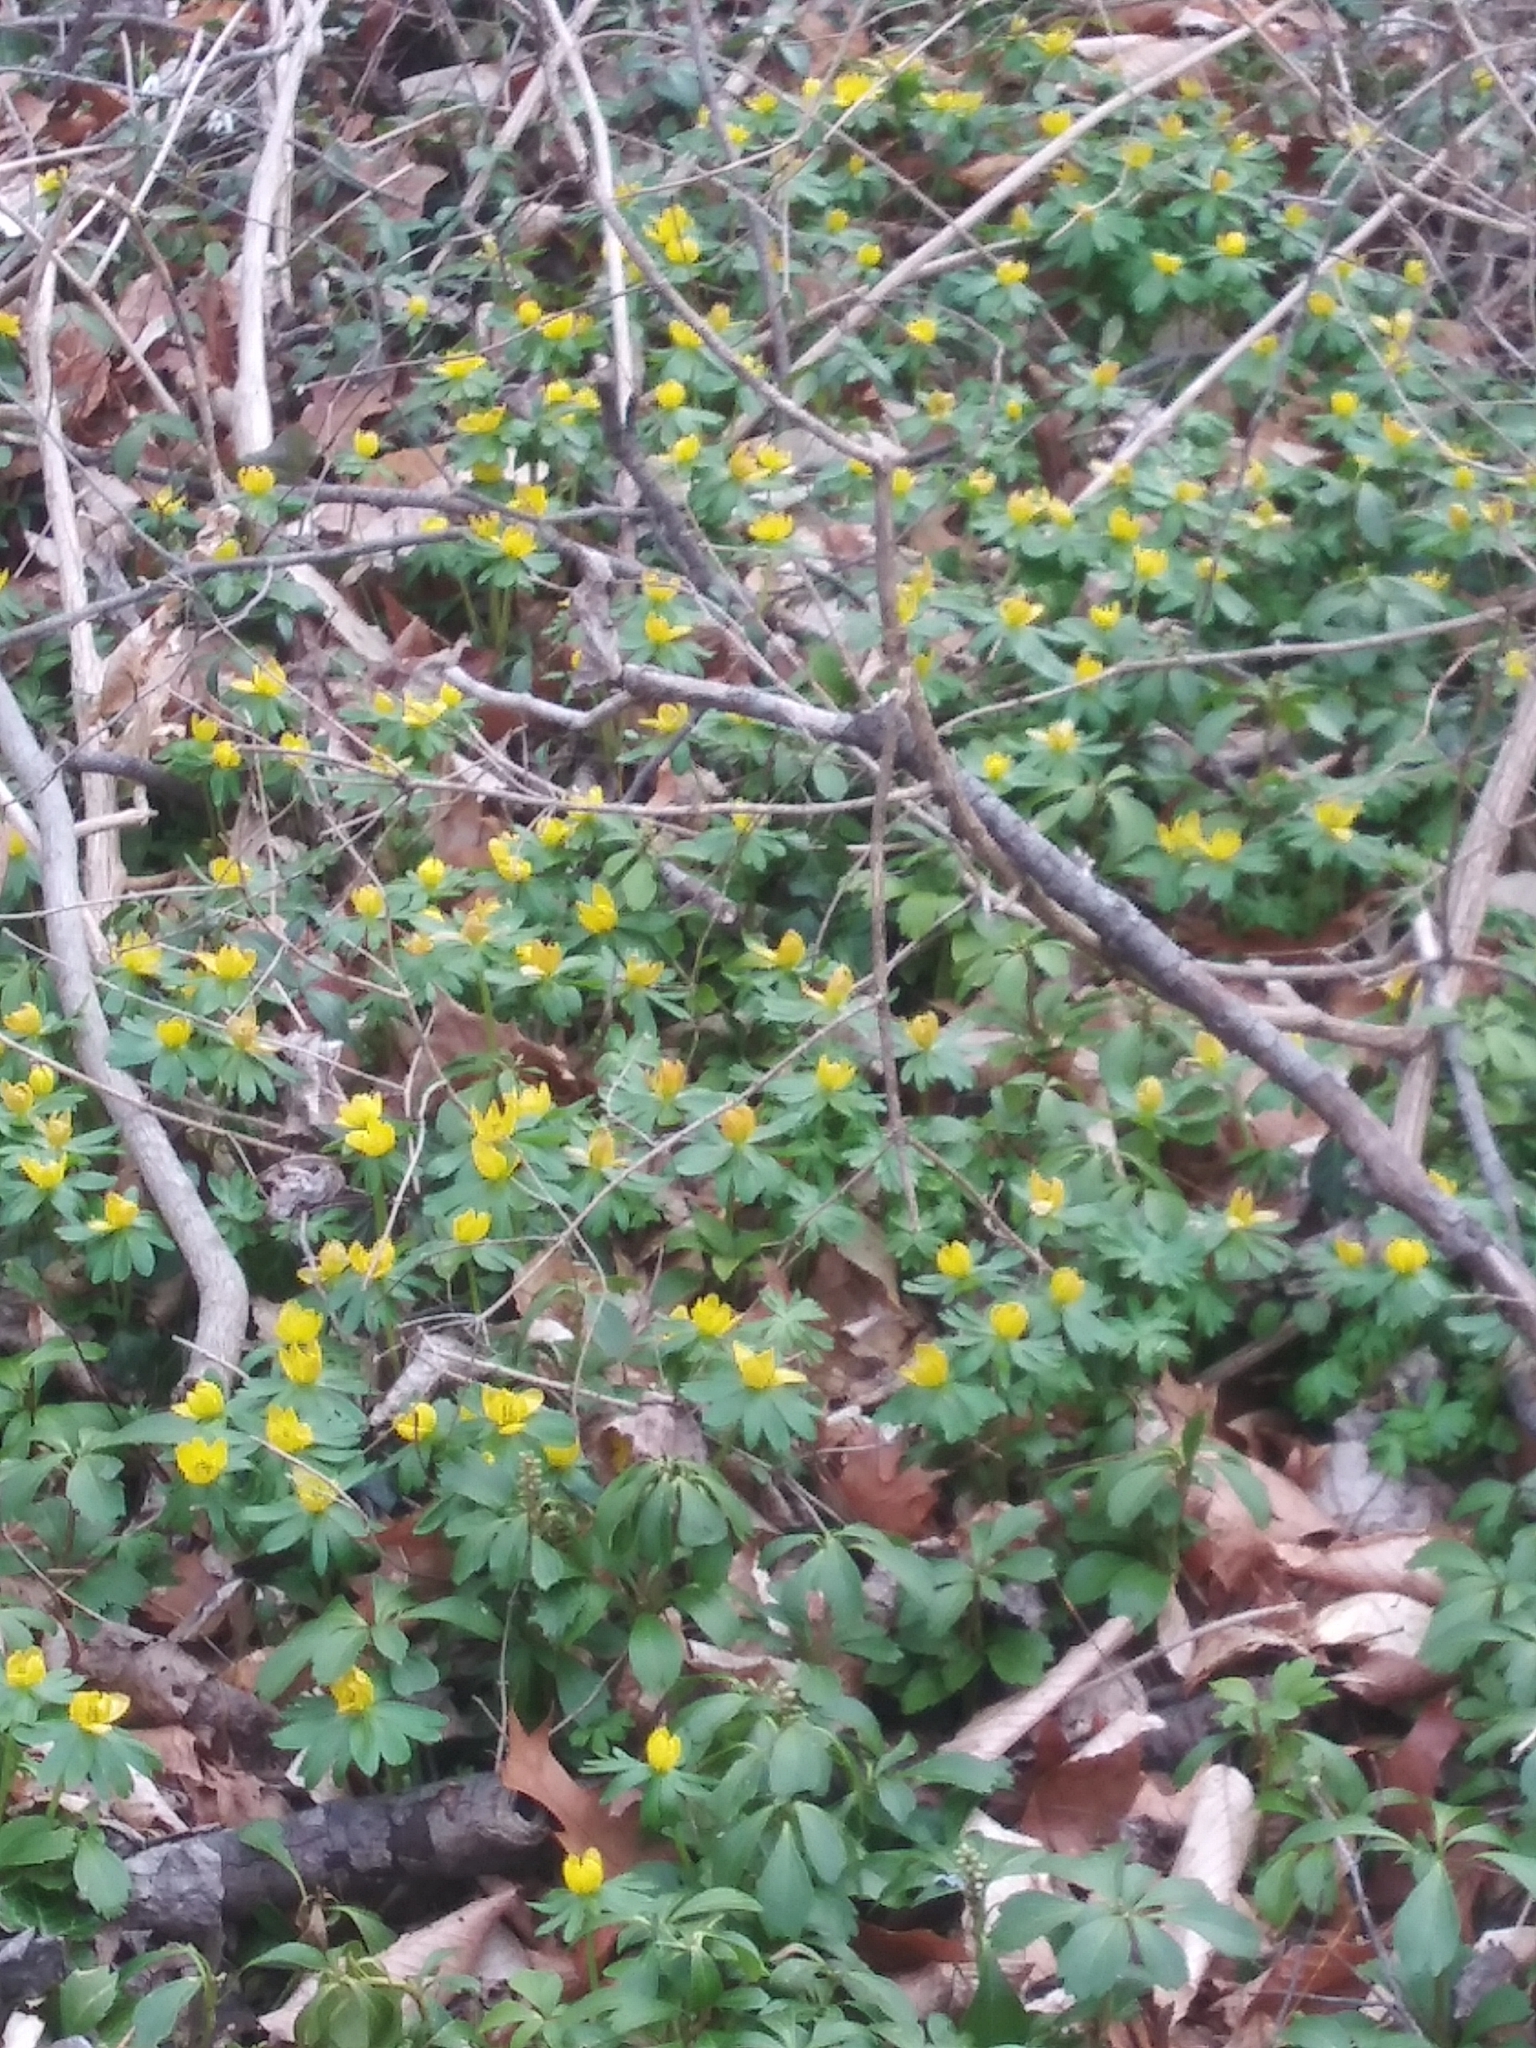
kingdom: Plantae
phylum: Tracheophyta
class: Magnoliopsida
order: Ranunculales
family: Ranunculaceae
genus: Eranthis
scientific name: Eranthis hyemalis
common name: Winter aconite
